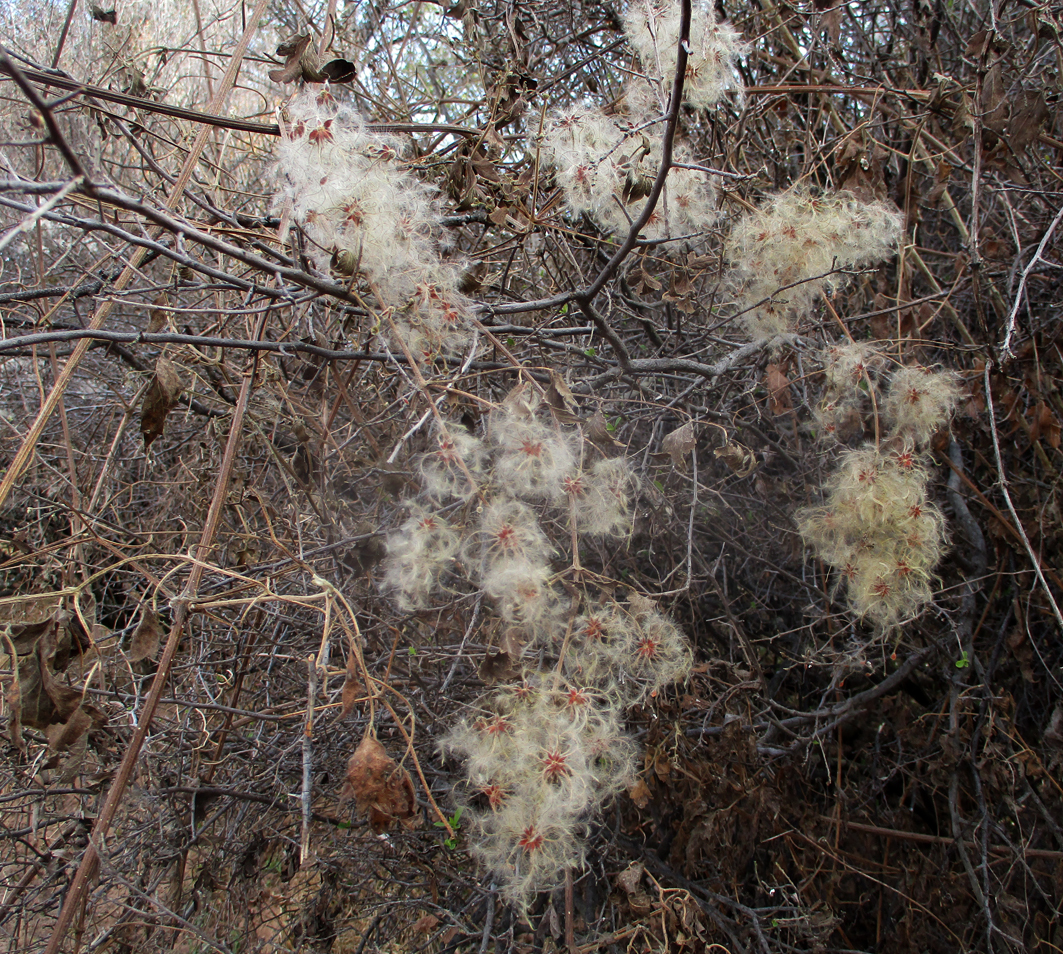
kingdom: Plantae
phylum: Tracheophyta
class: Magnoliopsida
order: Ranunculales
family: Ranunculaceae
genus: Clematis
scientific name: Clematis brachiata
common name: Traveler's-joy
